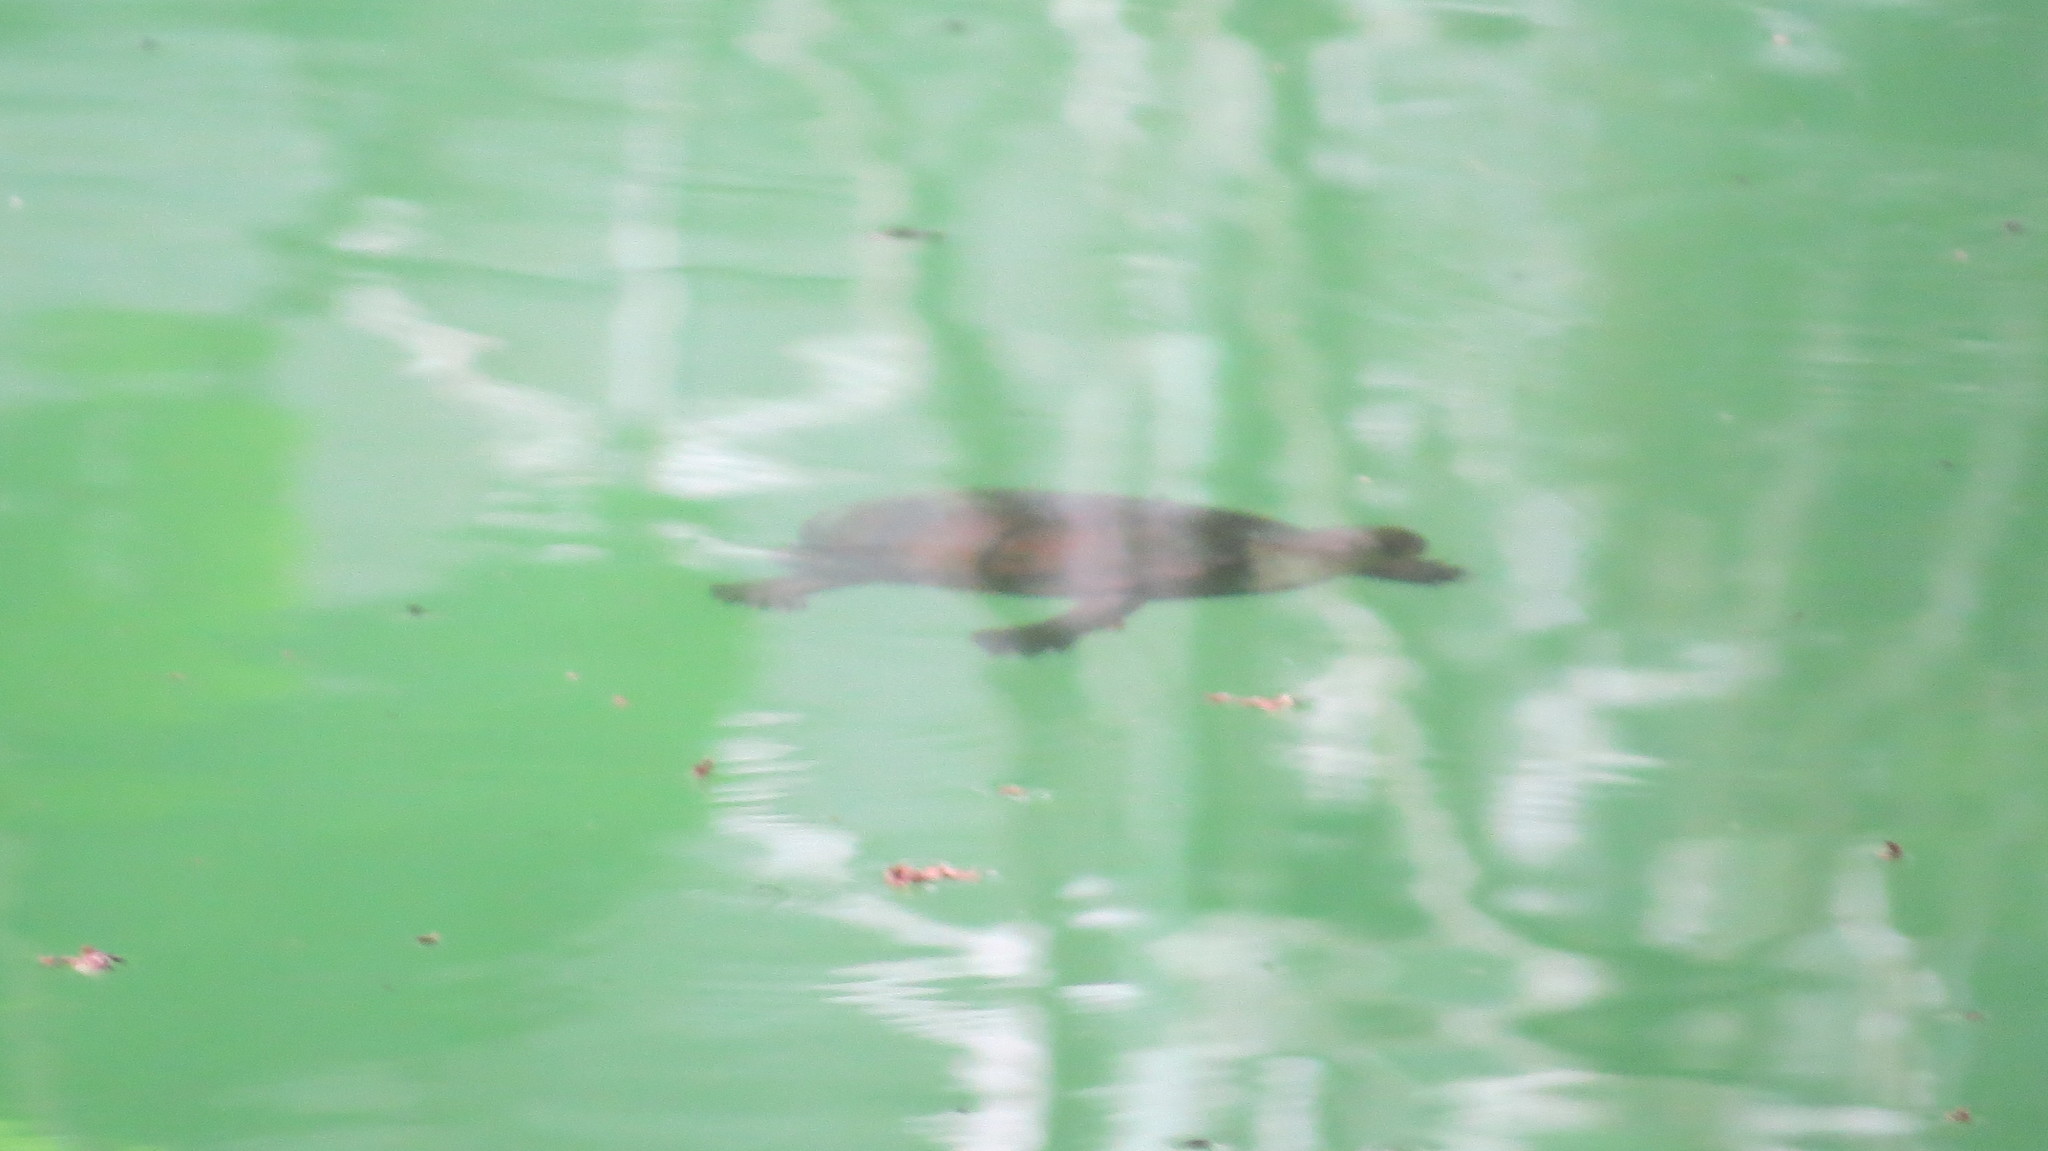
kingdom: Animalia
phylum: Chordata
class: Testudines
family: Kinosternidae
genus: Kinosternon
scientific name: Kinosternon scorpioides
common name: Scorpion mud turtle
